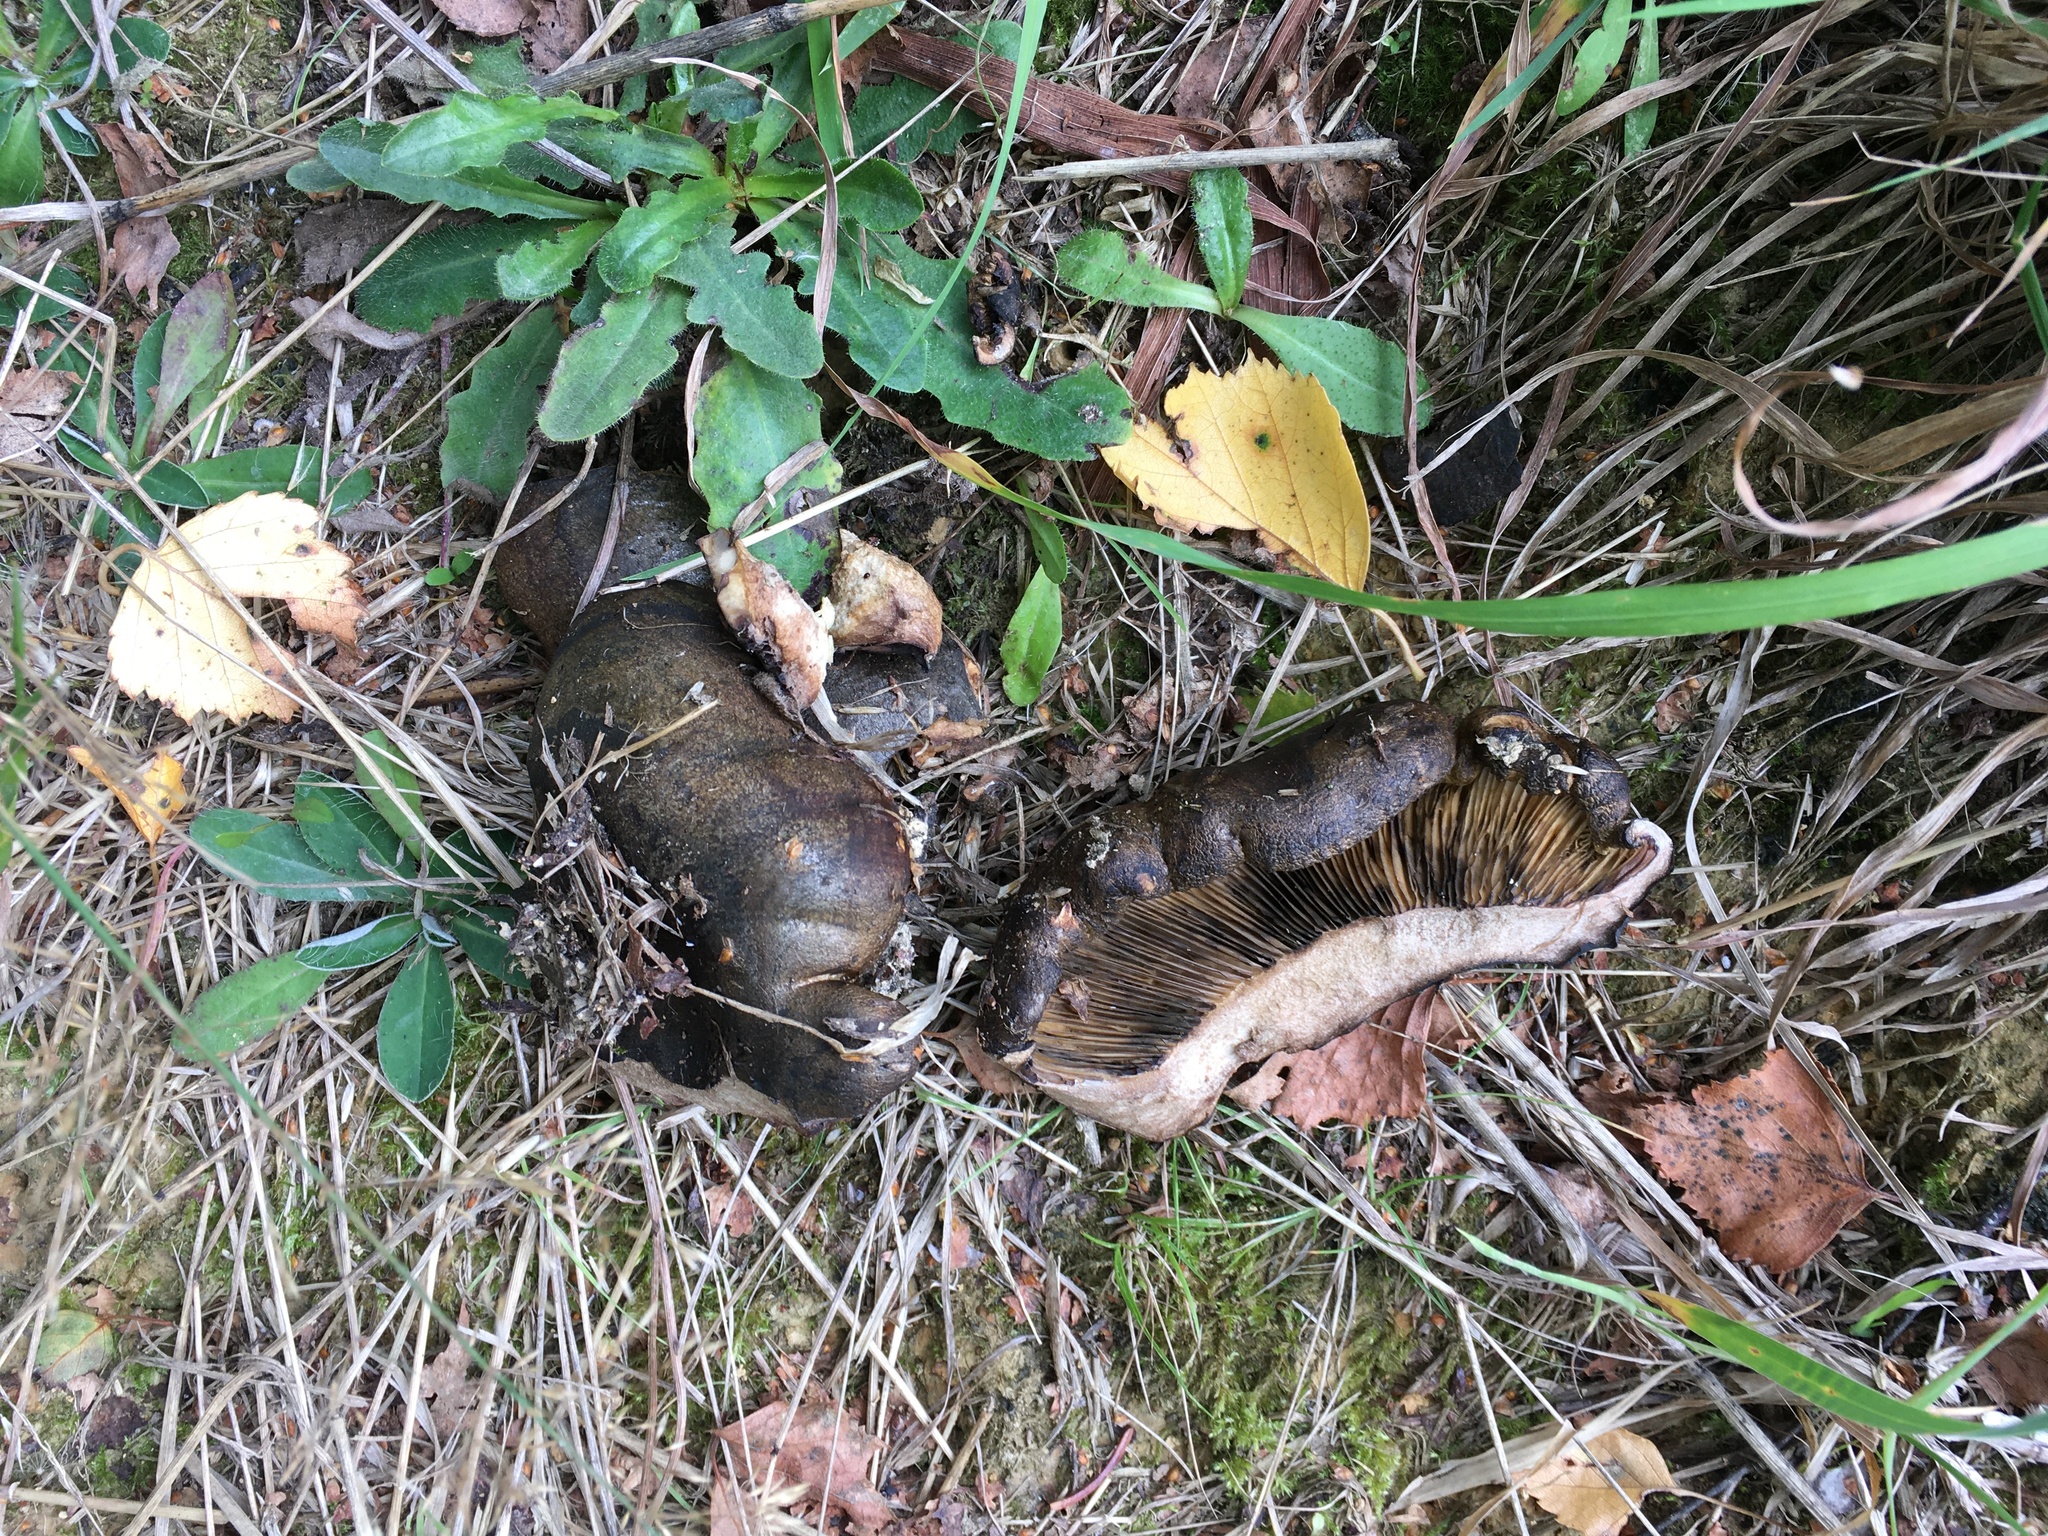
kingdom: Fungi
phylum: Basidiomycota
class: Agaricomycetes
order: Russulales
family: Russulaceae
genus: Lactarius
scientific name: Lactarius turpis
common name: Ugly milk-cap
